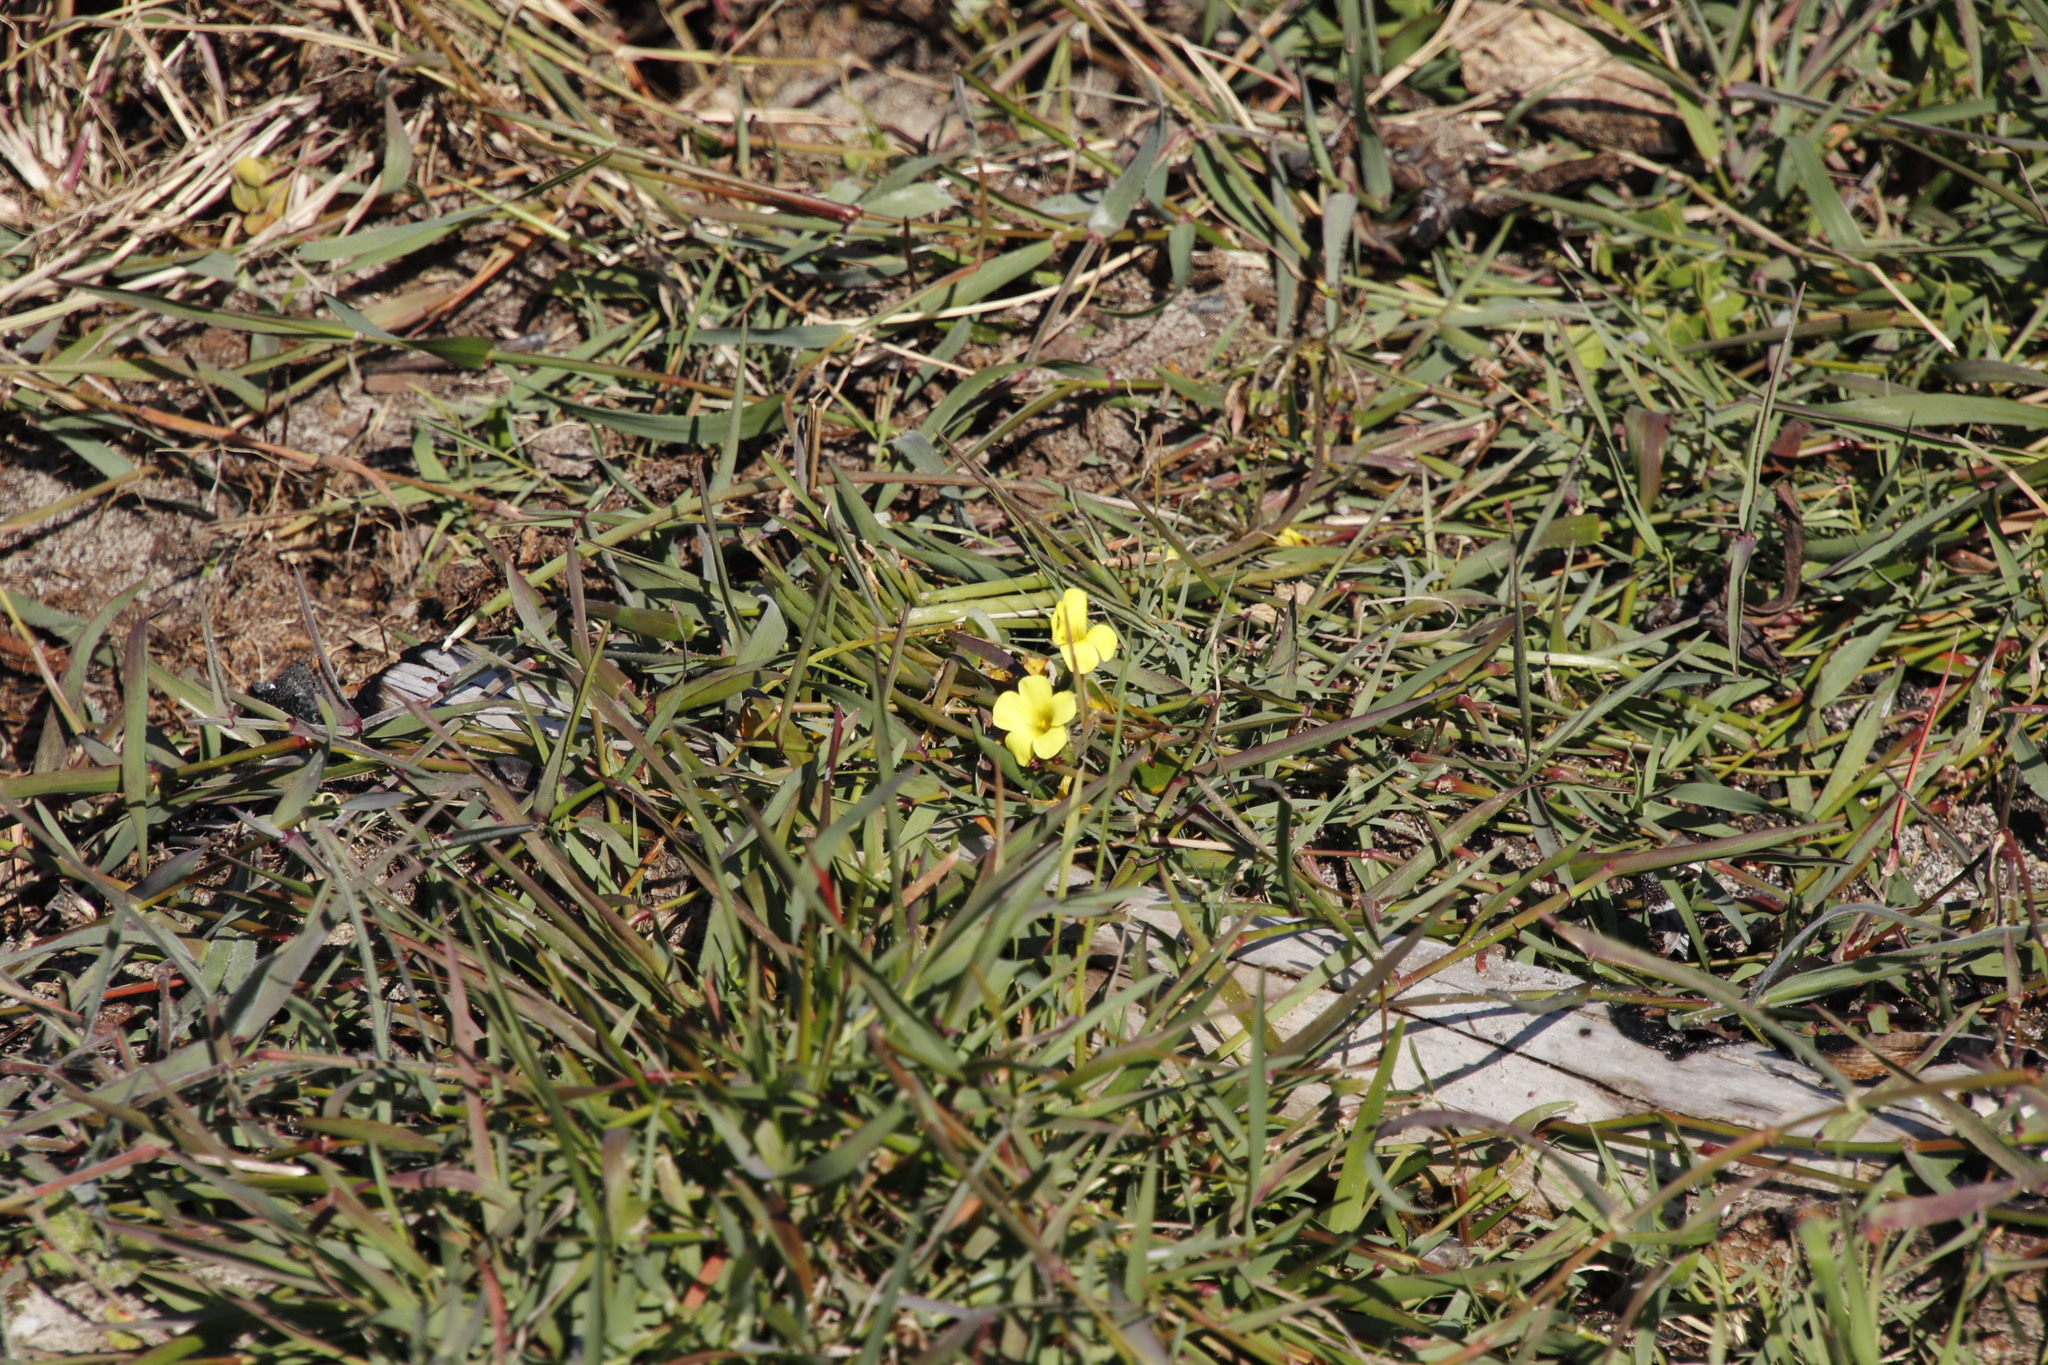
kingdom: Plantae
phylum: Tracheophyta
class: Magnoliopsida
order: Oxalidales
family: Oxalidaceae
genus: Oxalis
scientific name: Oxalis pes-caprae
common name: Bermuda-buttercup
